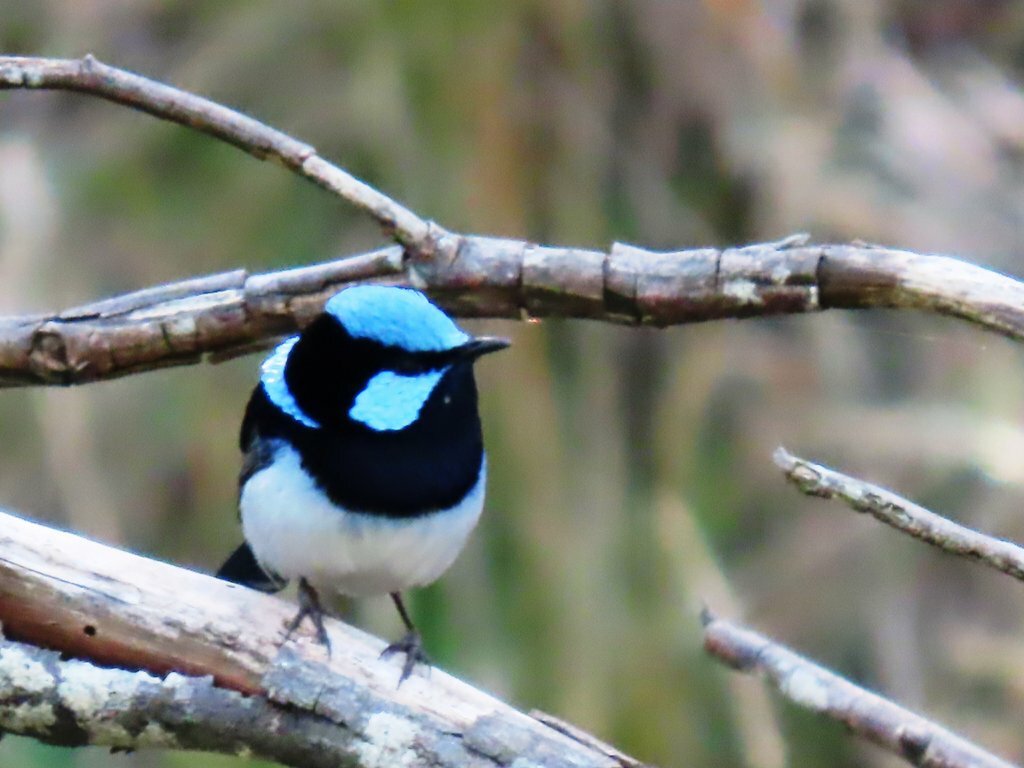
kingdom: Animalia
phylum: Chordata
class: Aves
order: Passeriformes
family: Maluridae
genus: Malurus
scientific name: Malurus cyaneus
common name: Superb fairywren
